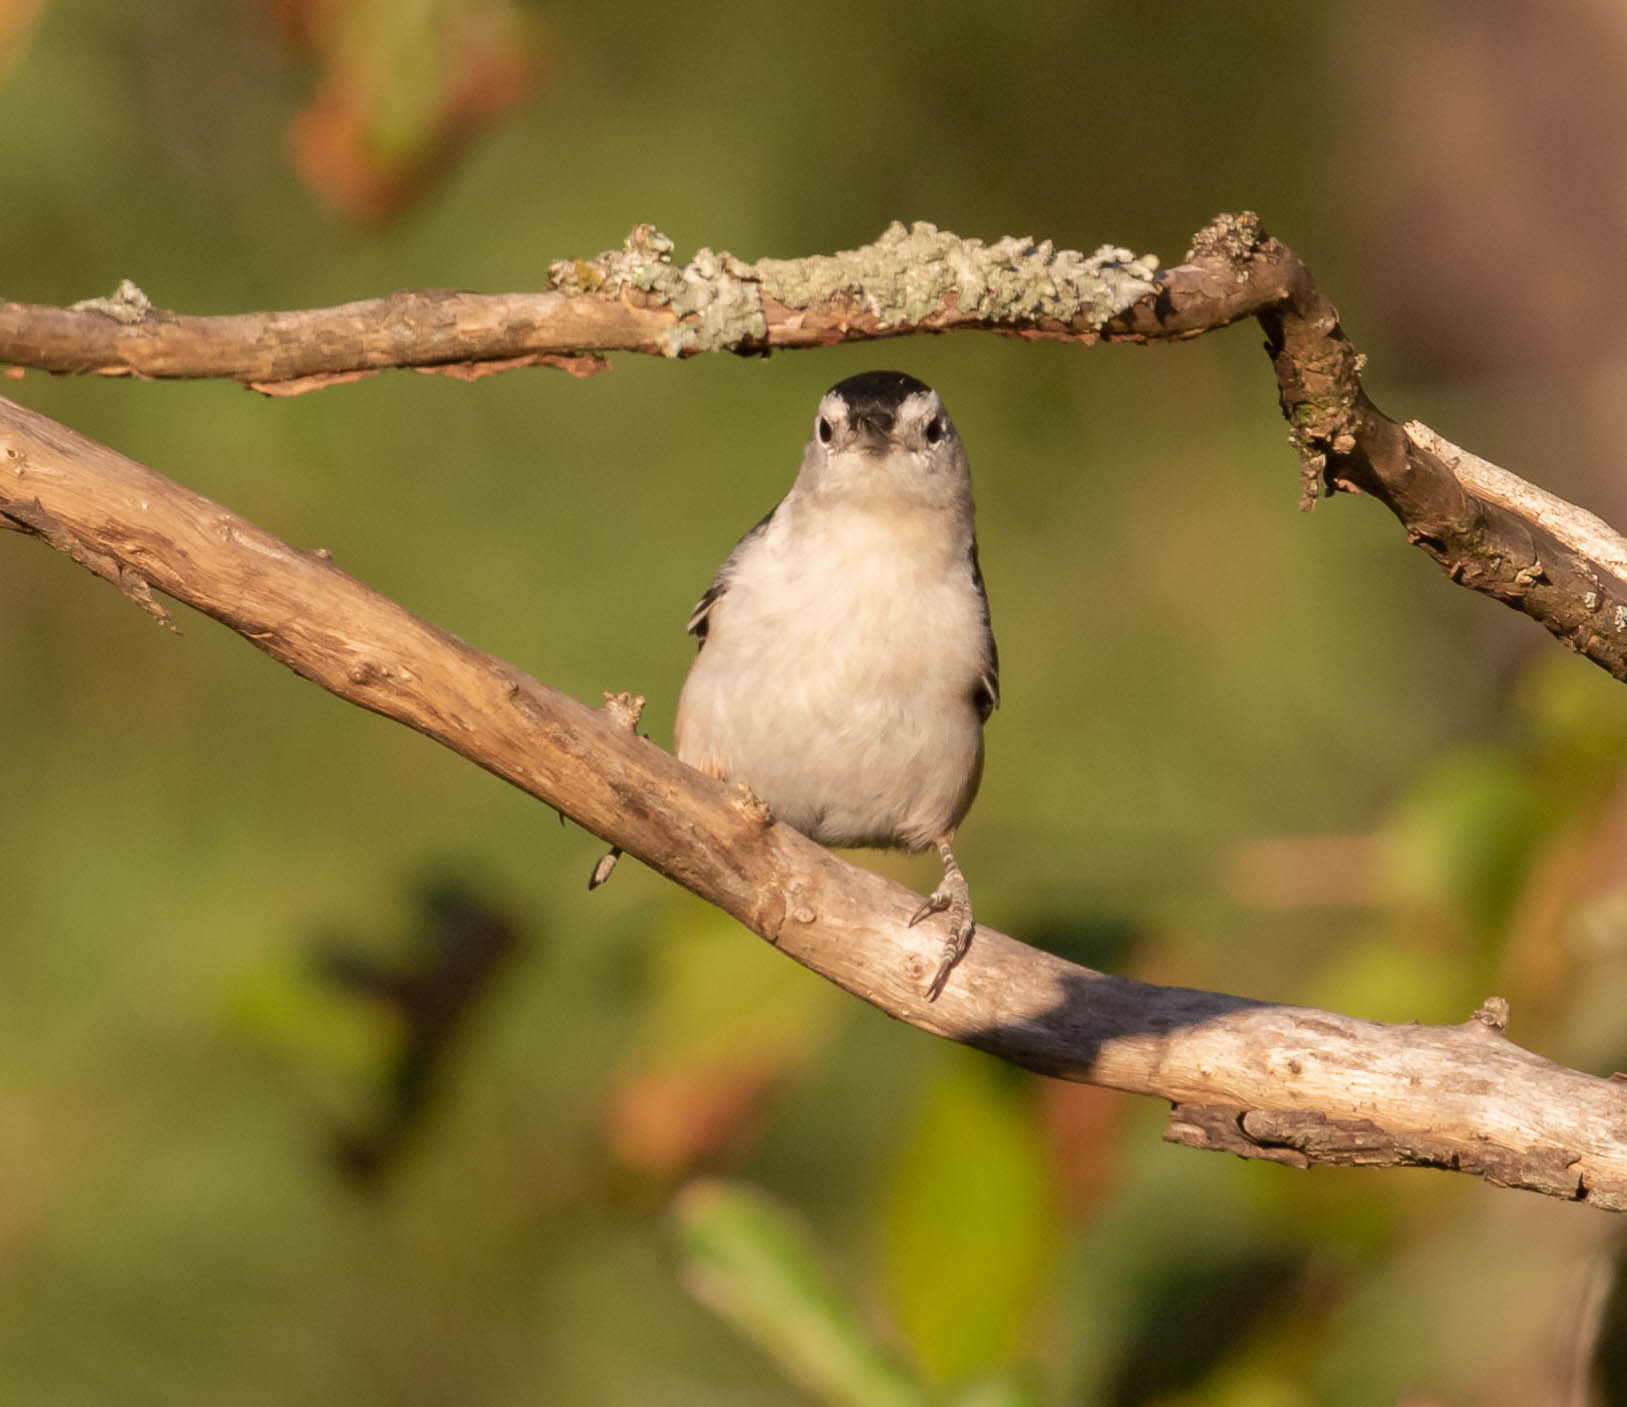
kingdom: Animalia
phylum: Chordata
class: Aves
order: Passeriformes
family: Sittidae
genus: Sitta
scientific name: Sitta carolinensis
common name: White-breasted nuthatch
